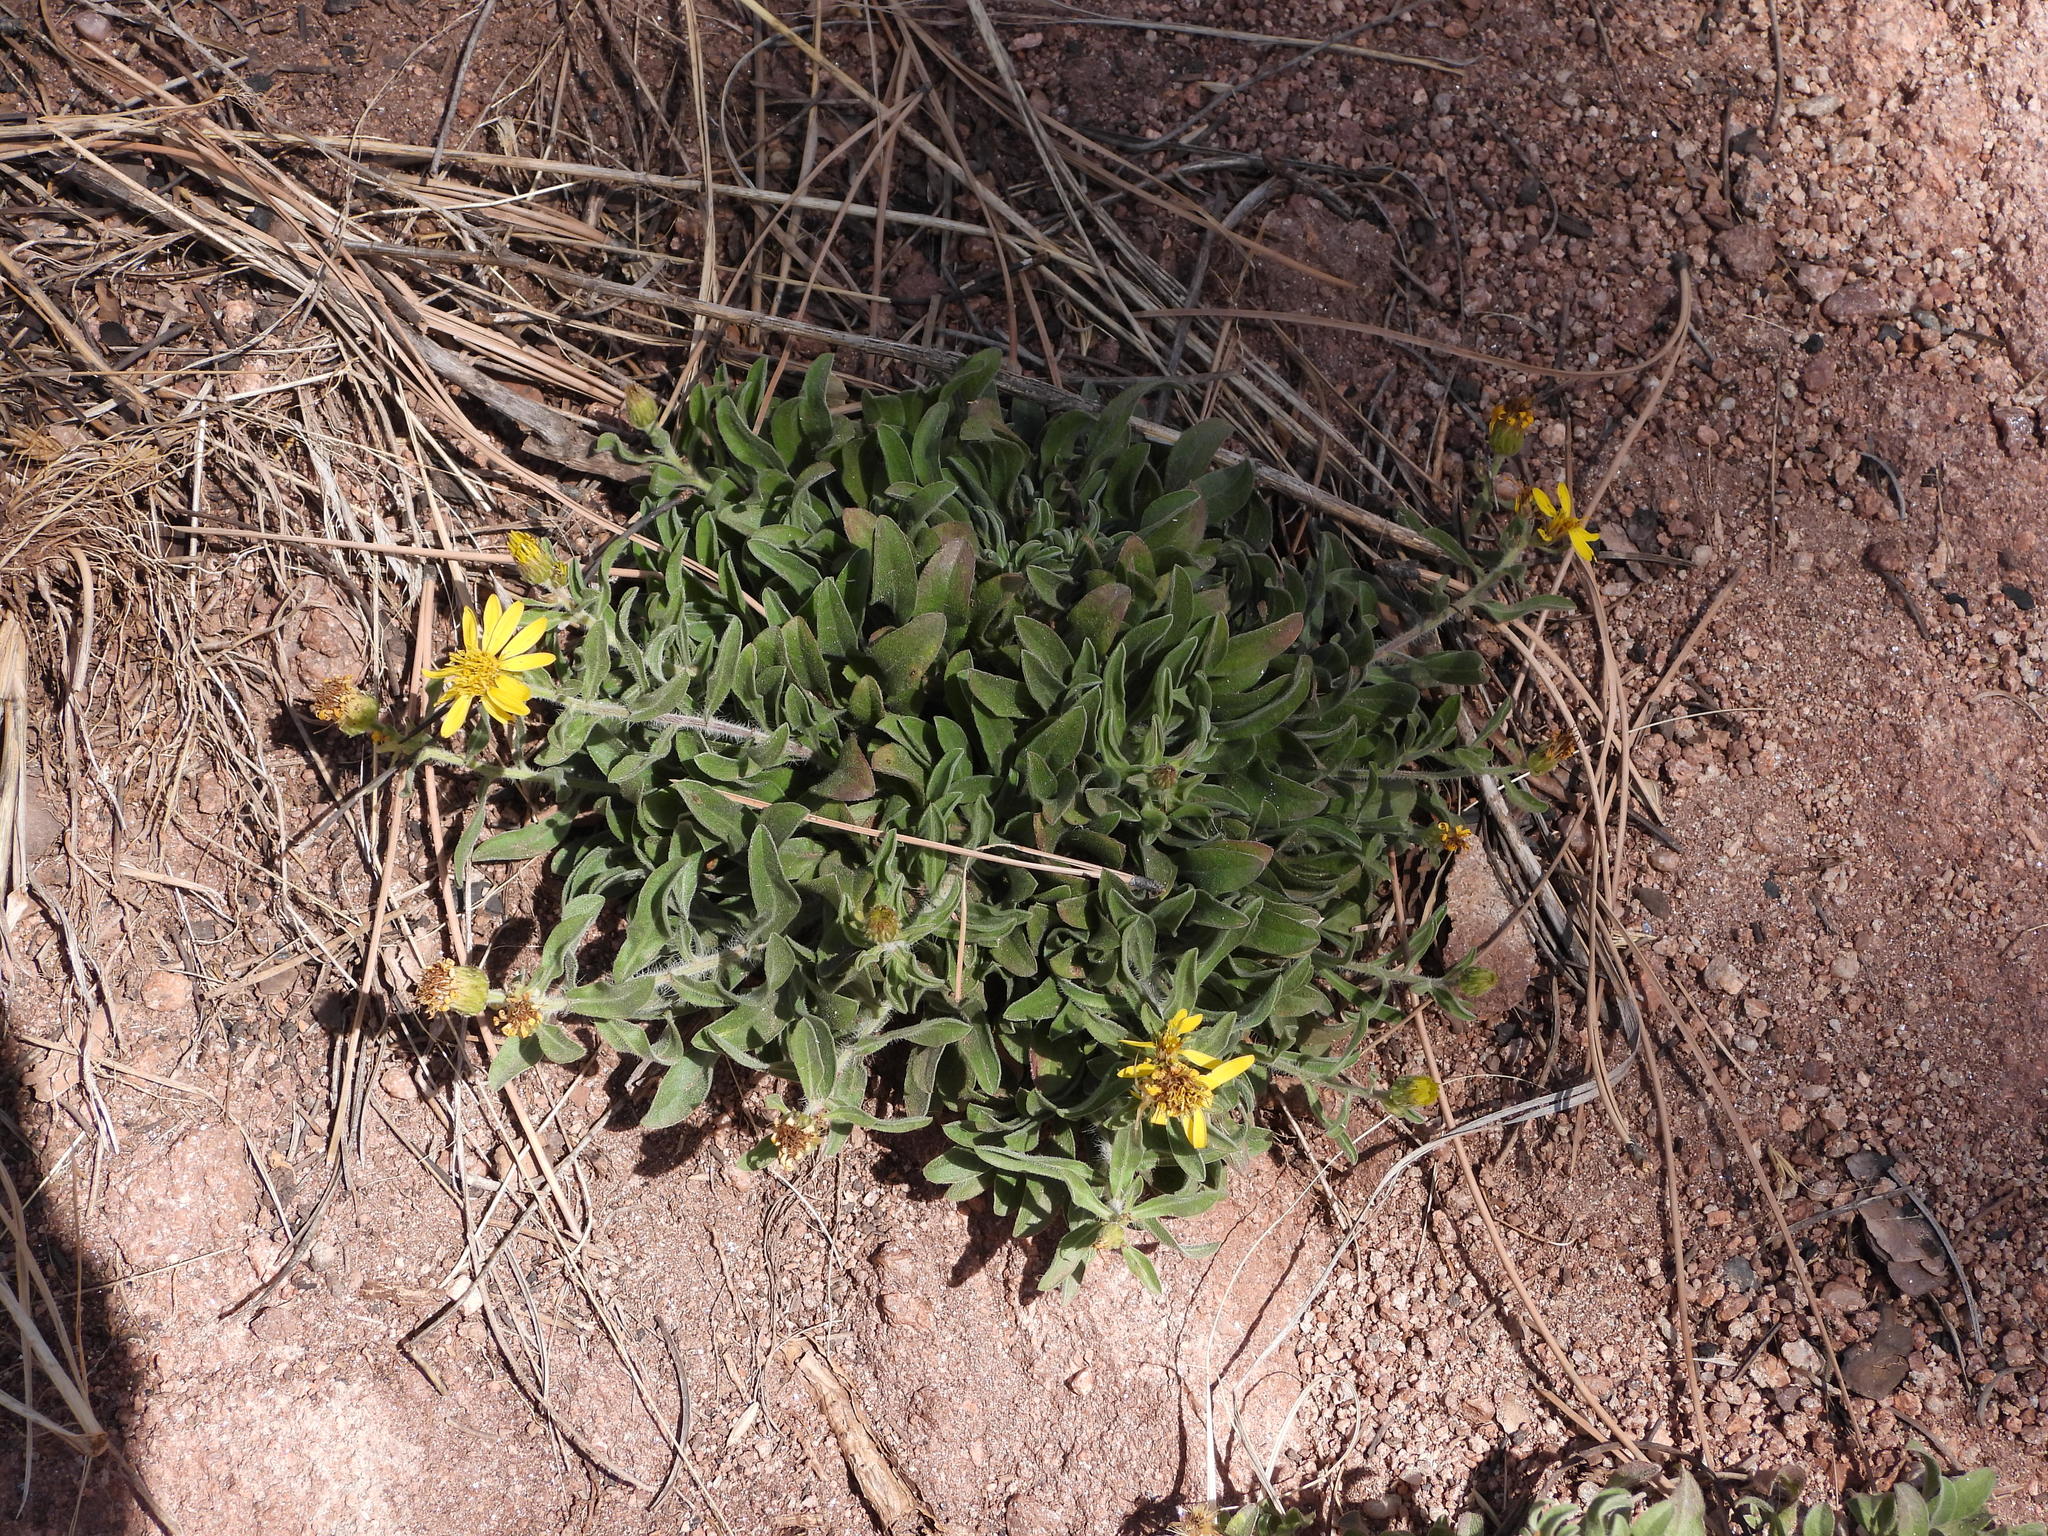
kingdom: Plantae
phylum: Tracheophyta
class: Magnoliopsida
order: Asterales
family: Asteraceae
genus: Heterotheca
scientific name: Heterotheca villosa
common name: Hairy false goldenaster
